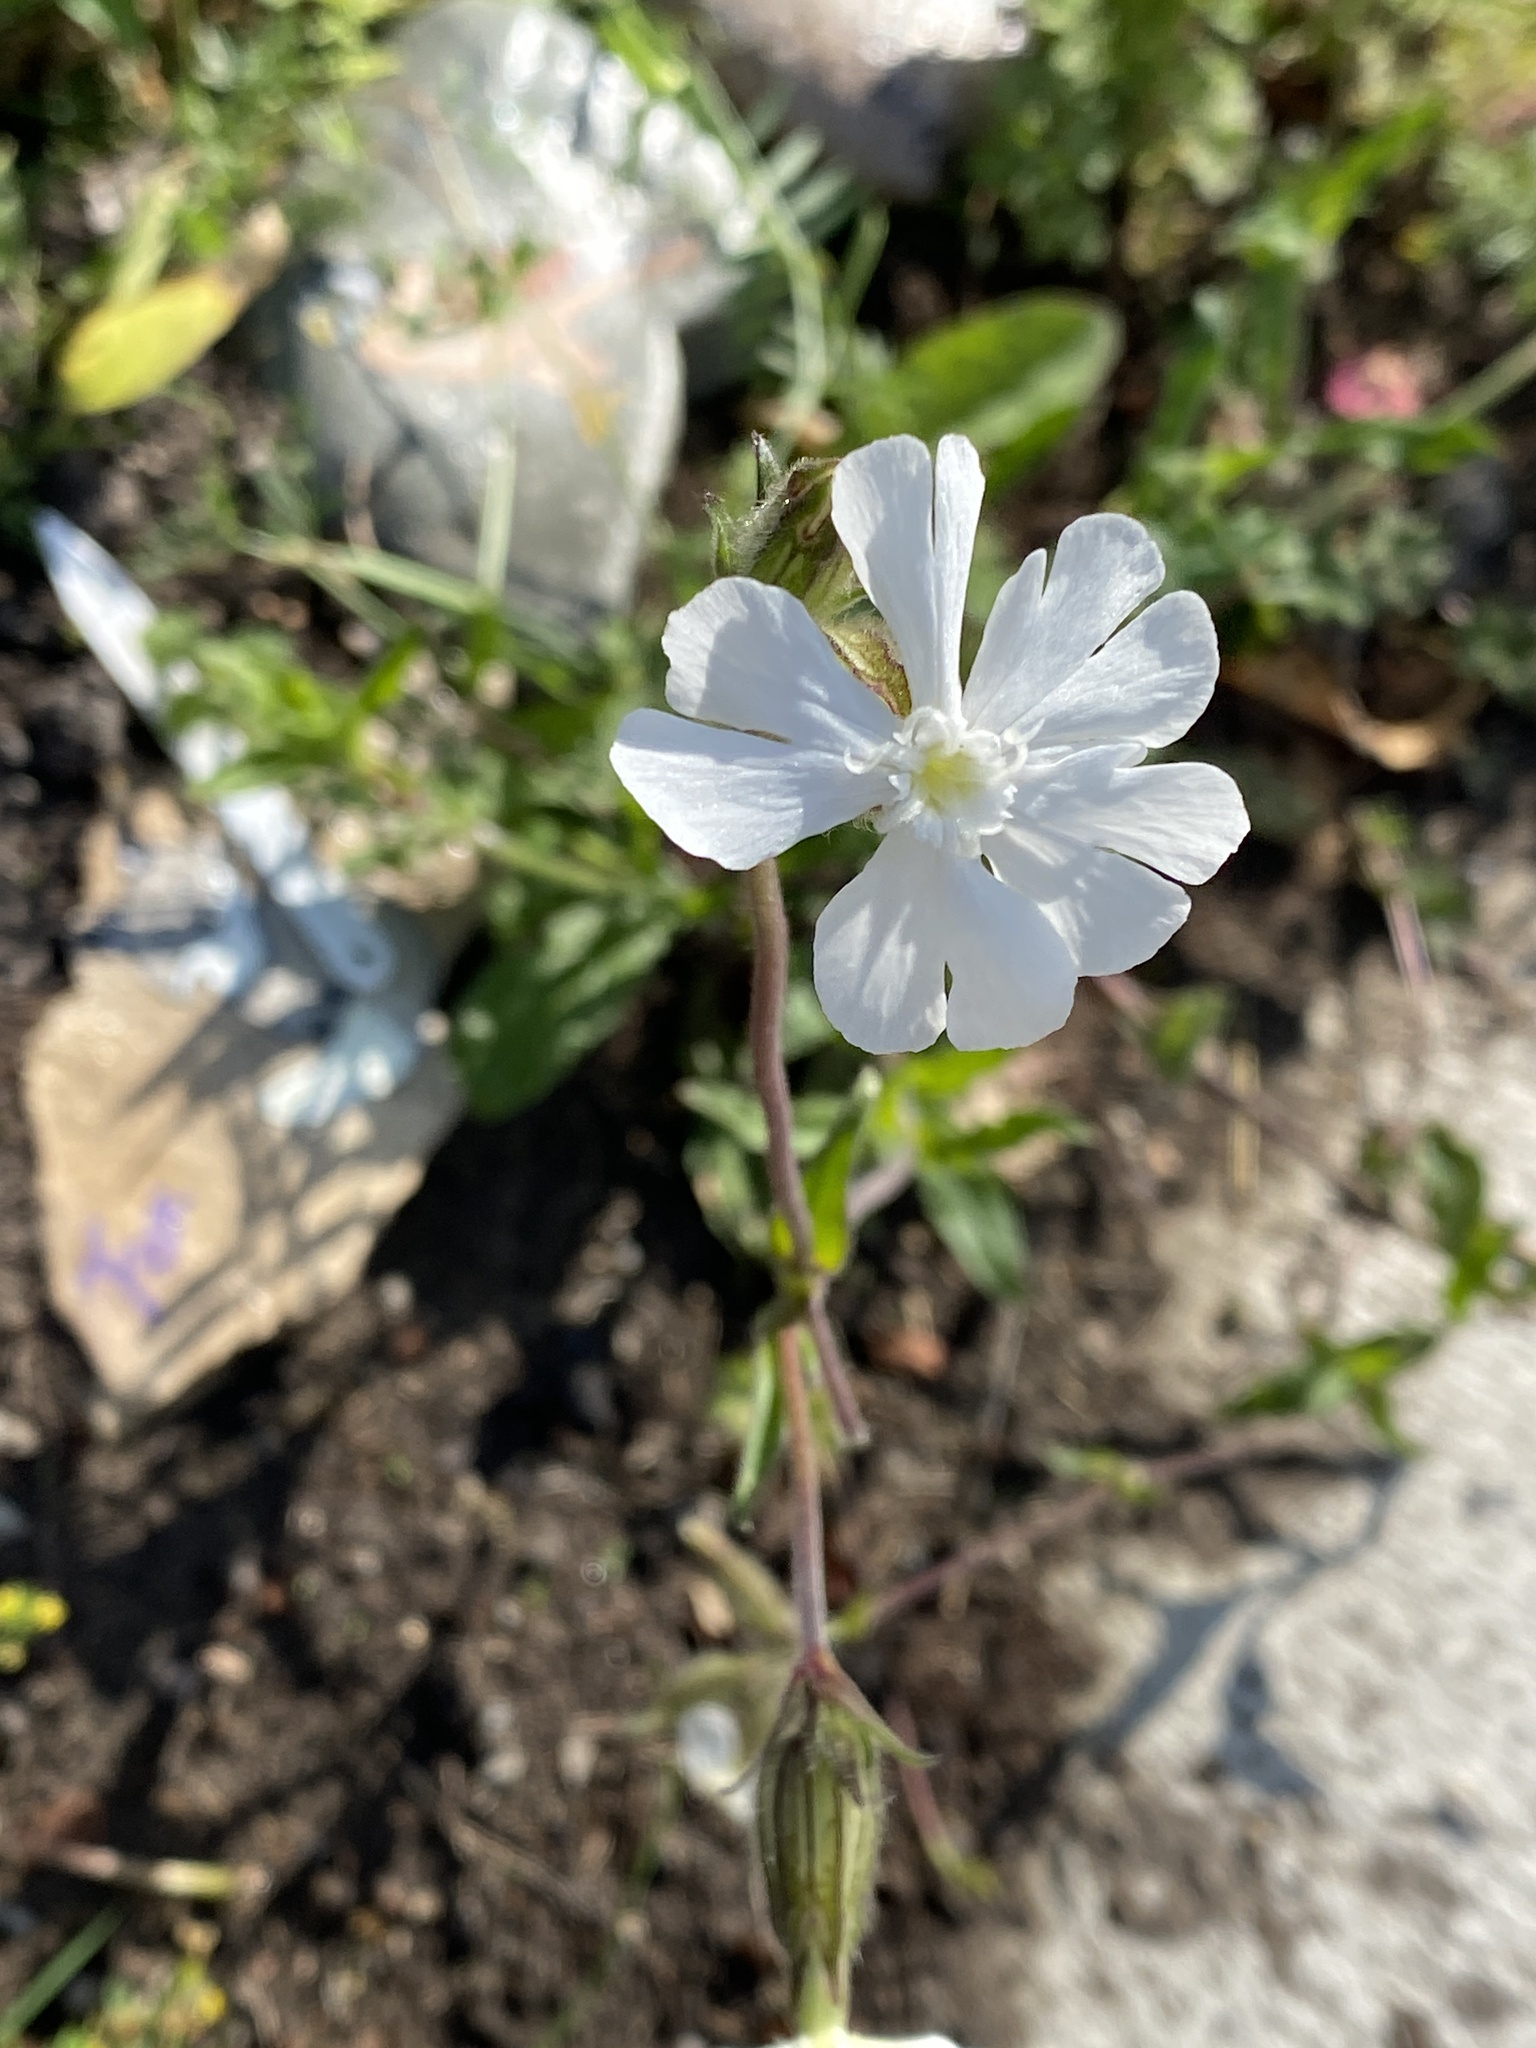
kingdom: Plantae
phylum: Tracheophyta
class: Magnoliopsida
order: Caryophyllales
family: Caryophyllaceae
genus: Silene
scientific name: Silene latifolia
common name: White campion
